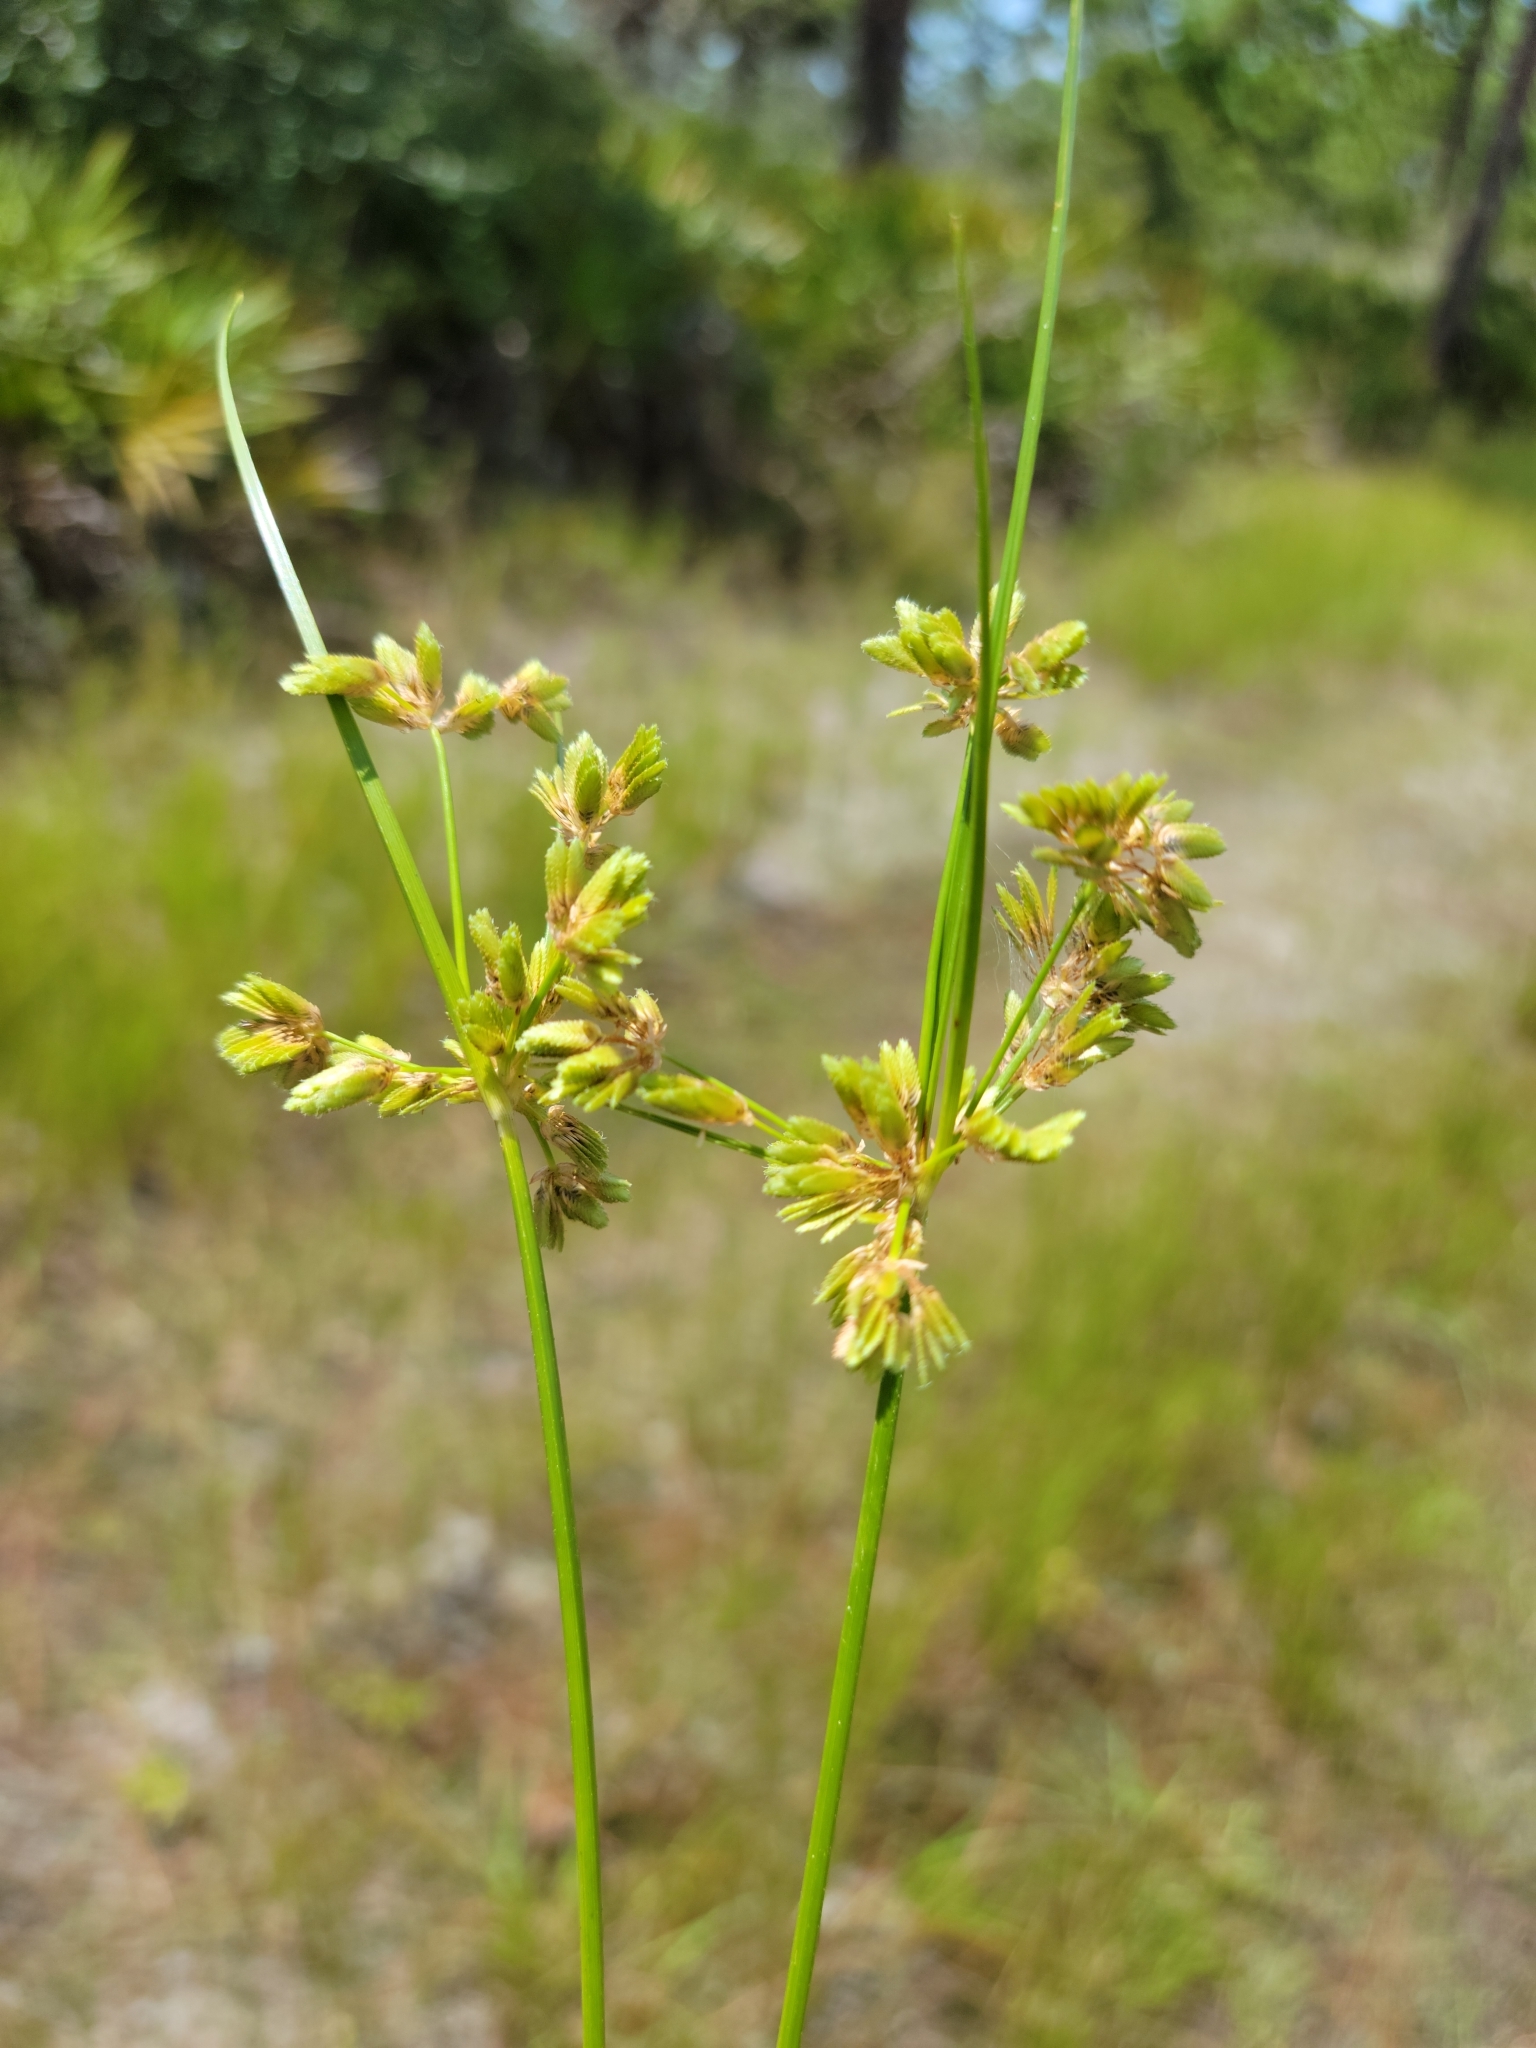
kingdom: Plantae
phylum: Tracheophyta
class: Liliopsida
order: Poales
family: Cyperaceae
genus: Cyperus
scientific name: Cyperus surinamensis
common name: Tropical flat sedge
